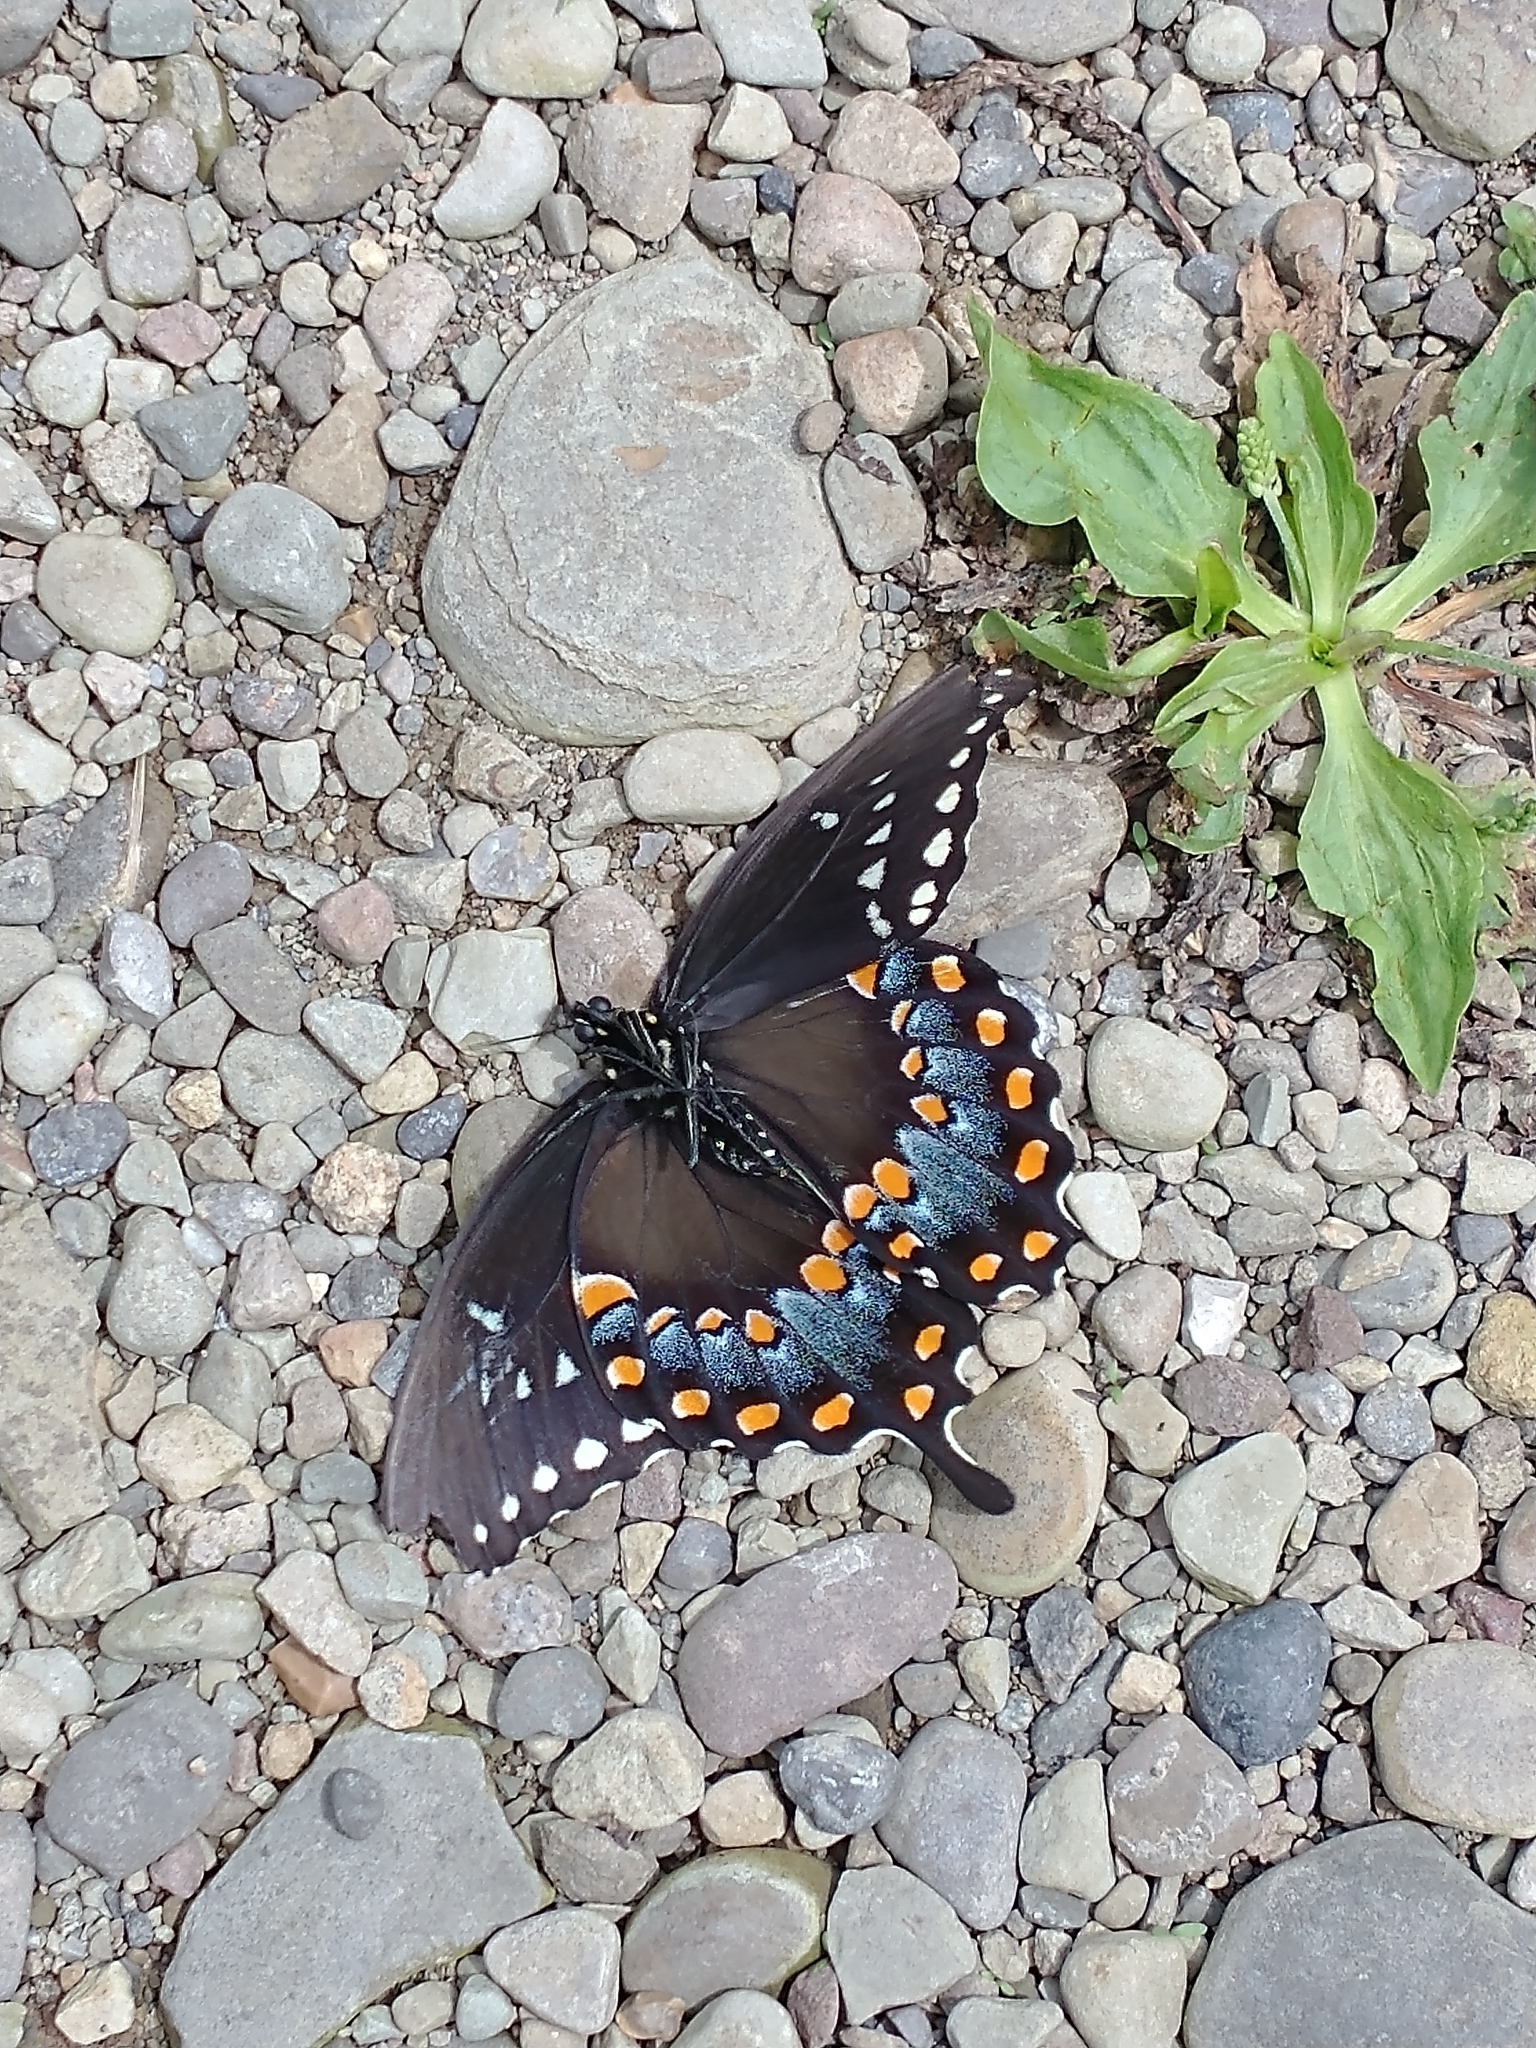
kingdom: Animalia
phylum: Arthropoda
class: Insecta
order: Lepidoptera
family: Papilionidae
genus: Papilio
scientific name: Papilio troilus
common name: Spicebush swallowtail
